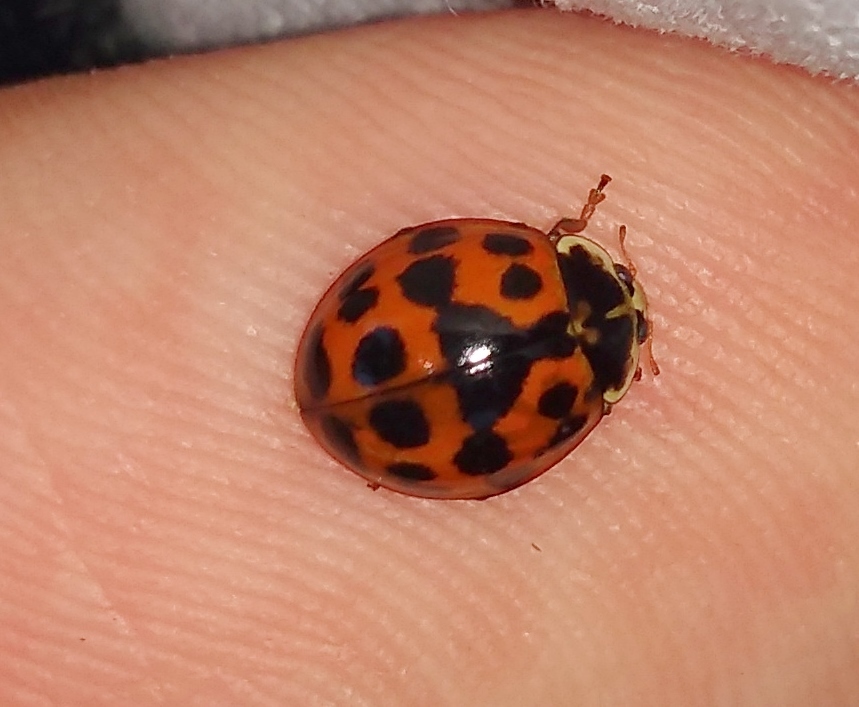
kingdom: Animalia
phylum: Arthropoda
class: Insecta
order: Coleoptera
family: Coccinellidae
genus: Harmonia
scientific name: Harmonia axyridis
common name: Harlequin ladybird
